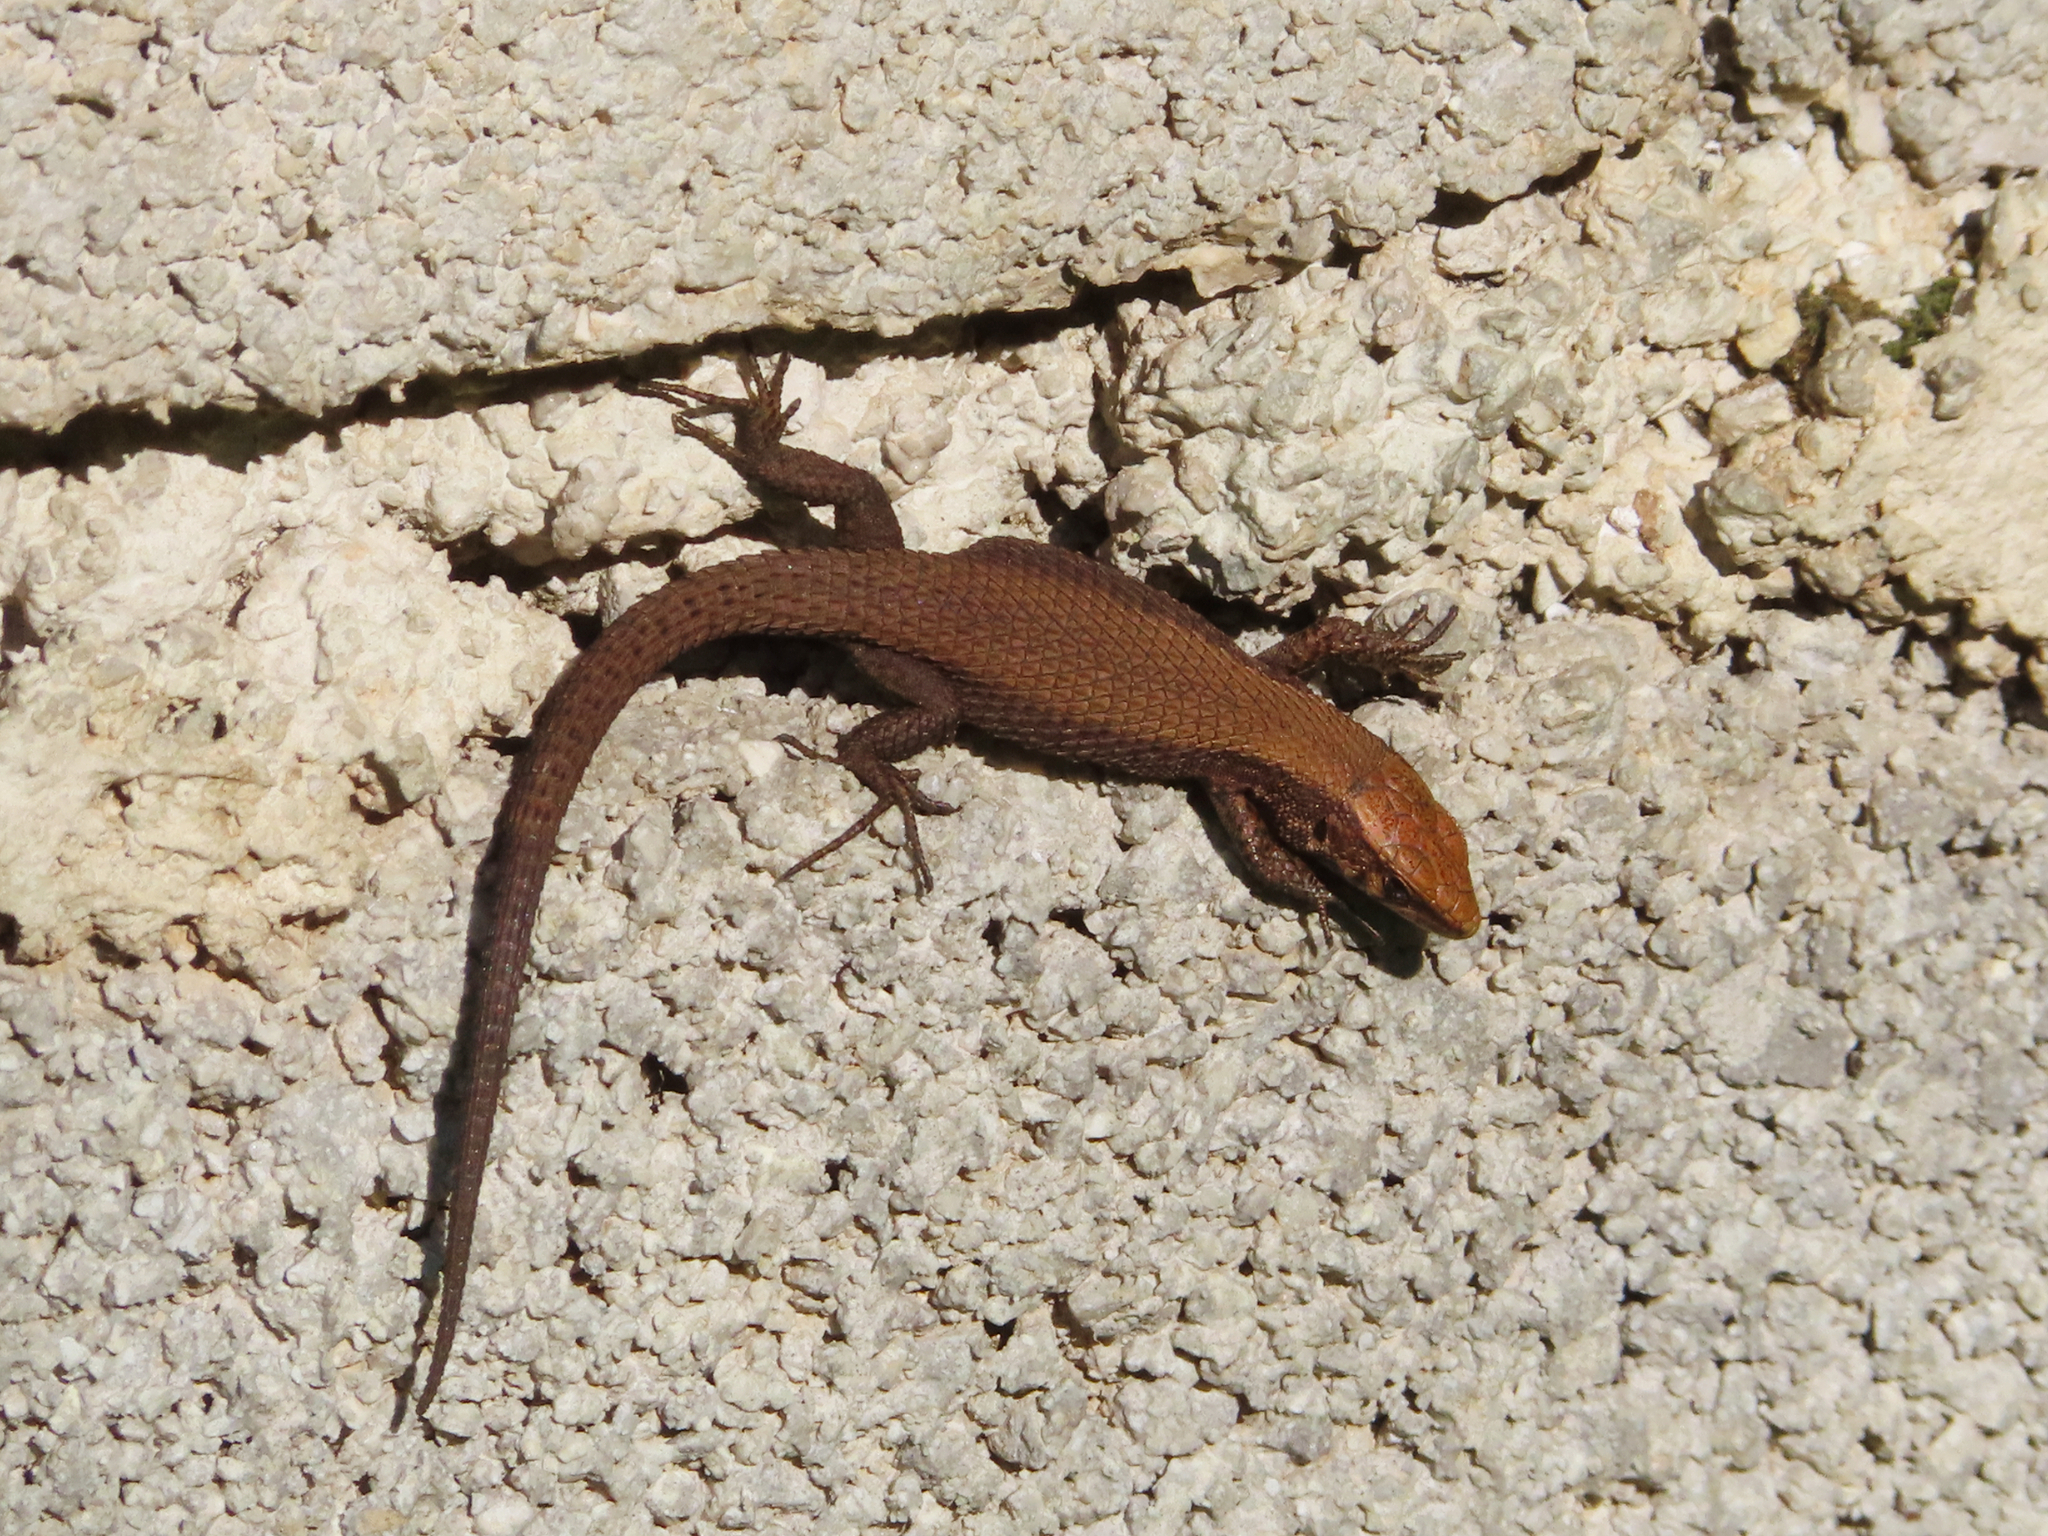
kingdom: Animalia
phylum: Chordata
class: Squamata
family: Lacertidae
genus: Algyroides
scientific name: Algyroides moreoticus
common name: Greek algyroides
